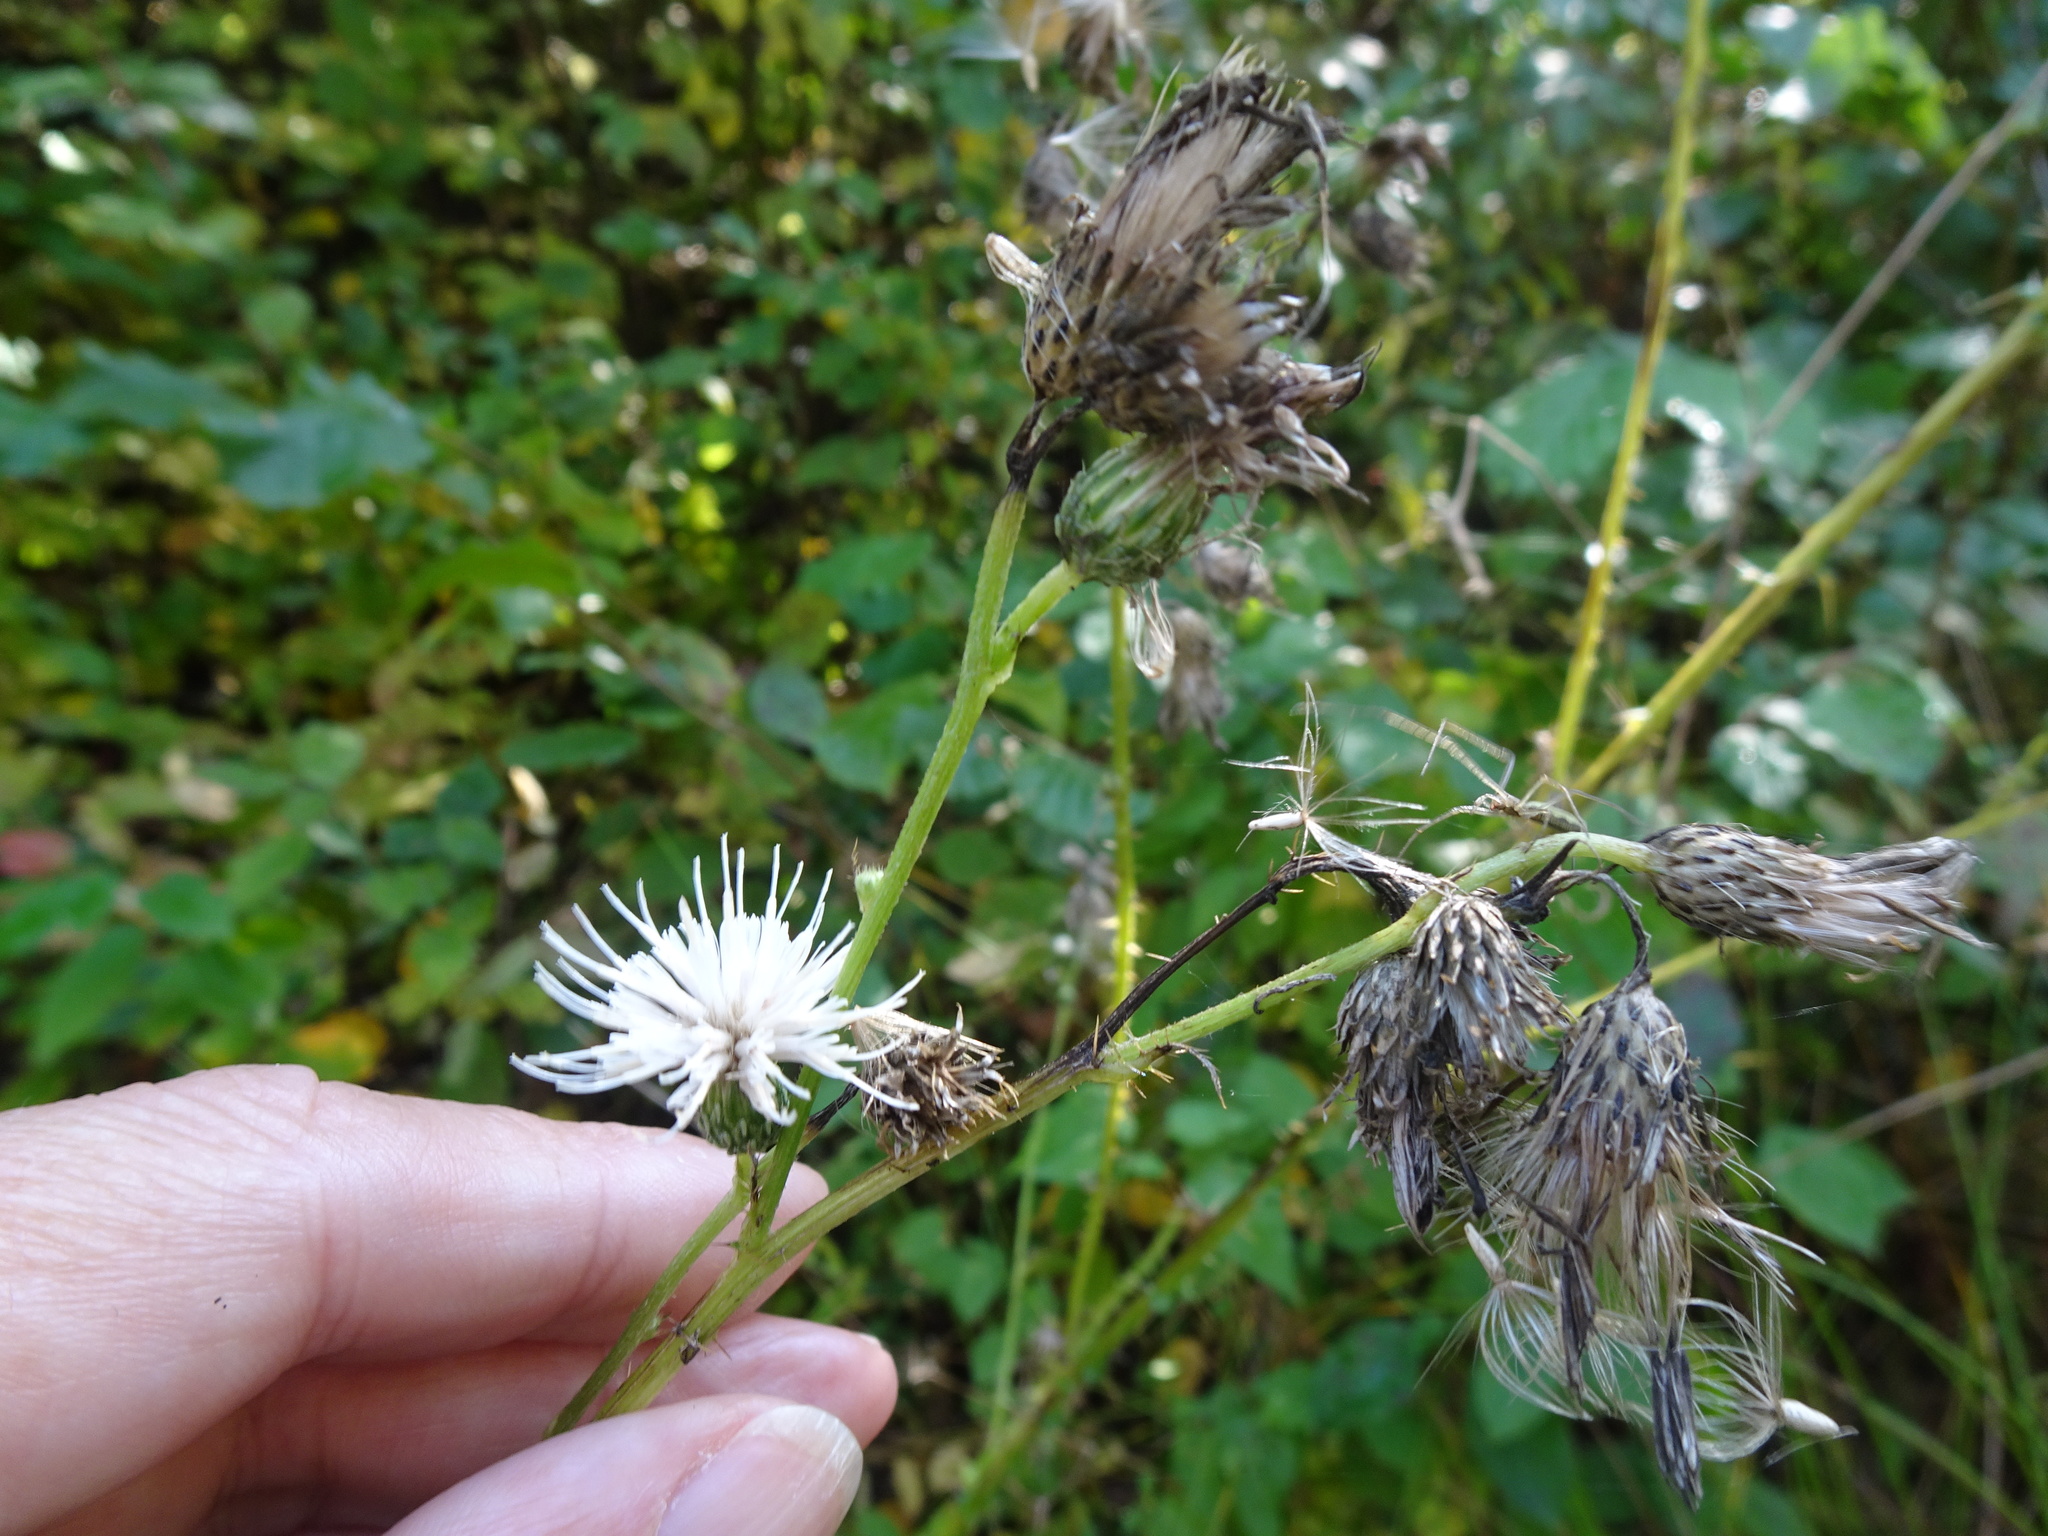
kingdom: Plantae
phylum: Tracheophyta
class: Magnoliopsida
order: Asterales
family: Asteraceae
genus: Cirsium
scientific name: Cirsium palustre
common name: Marsh thistle
